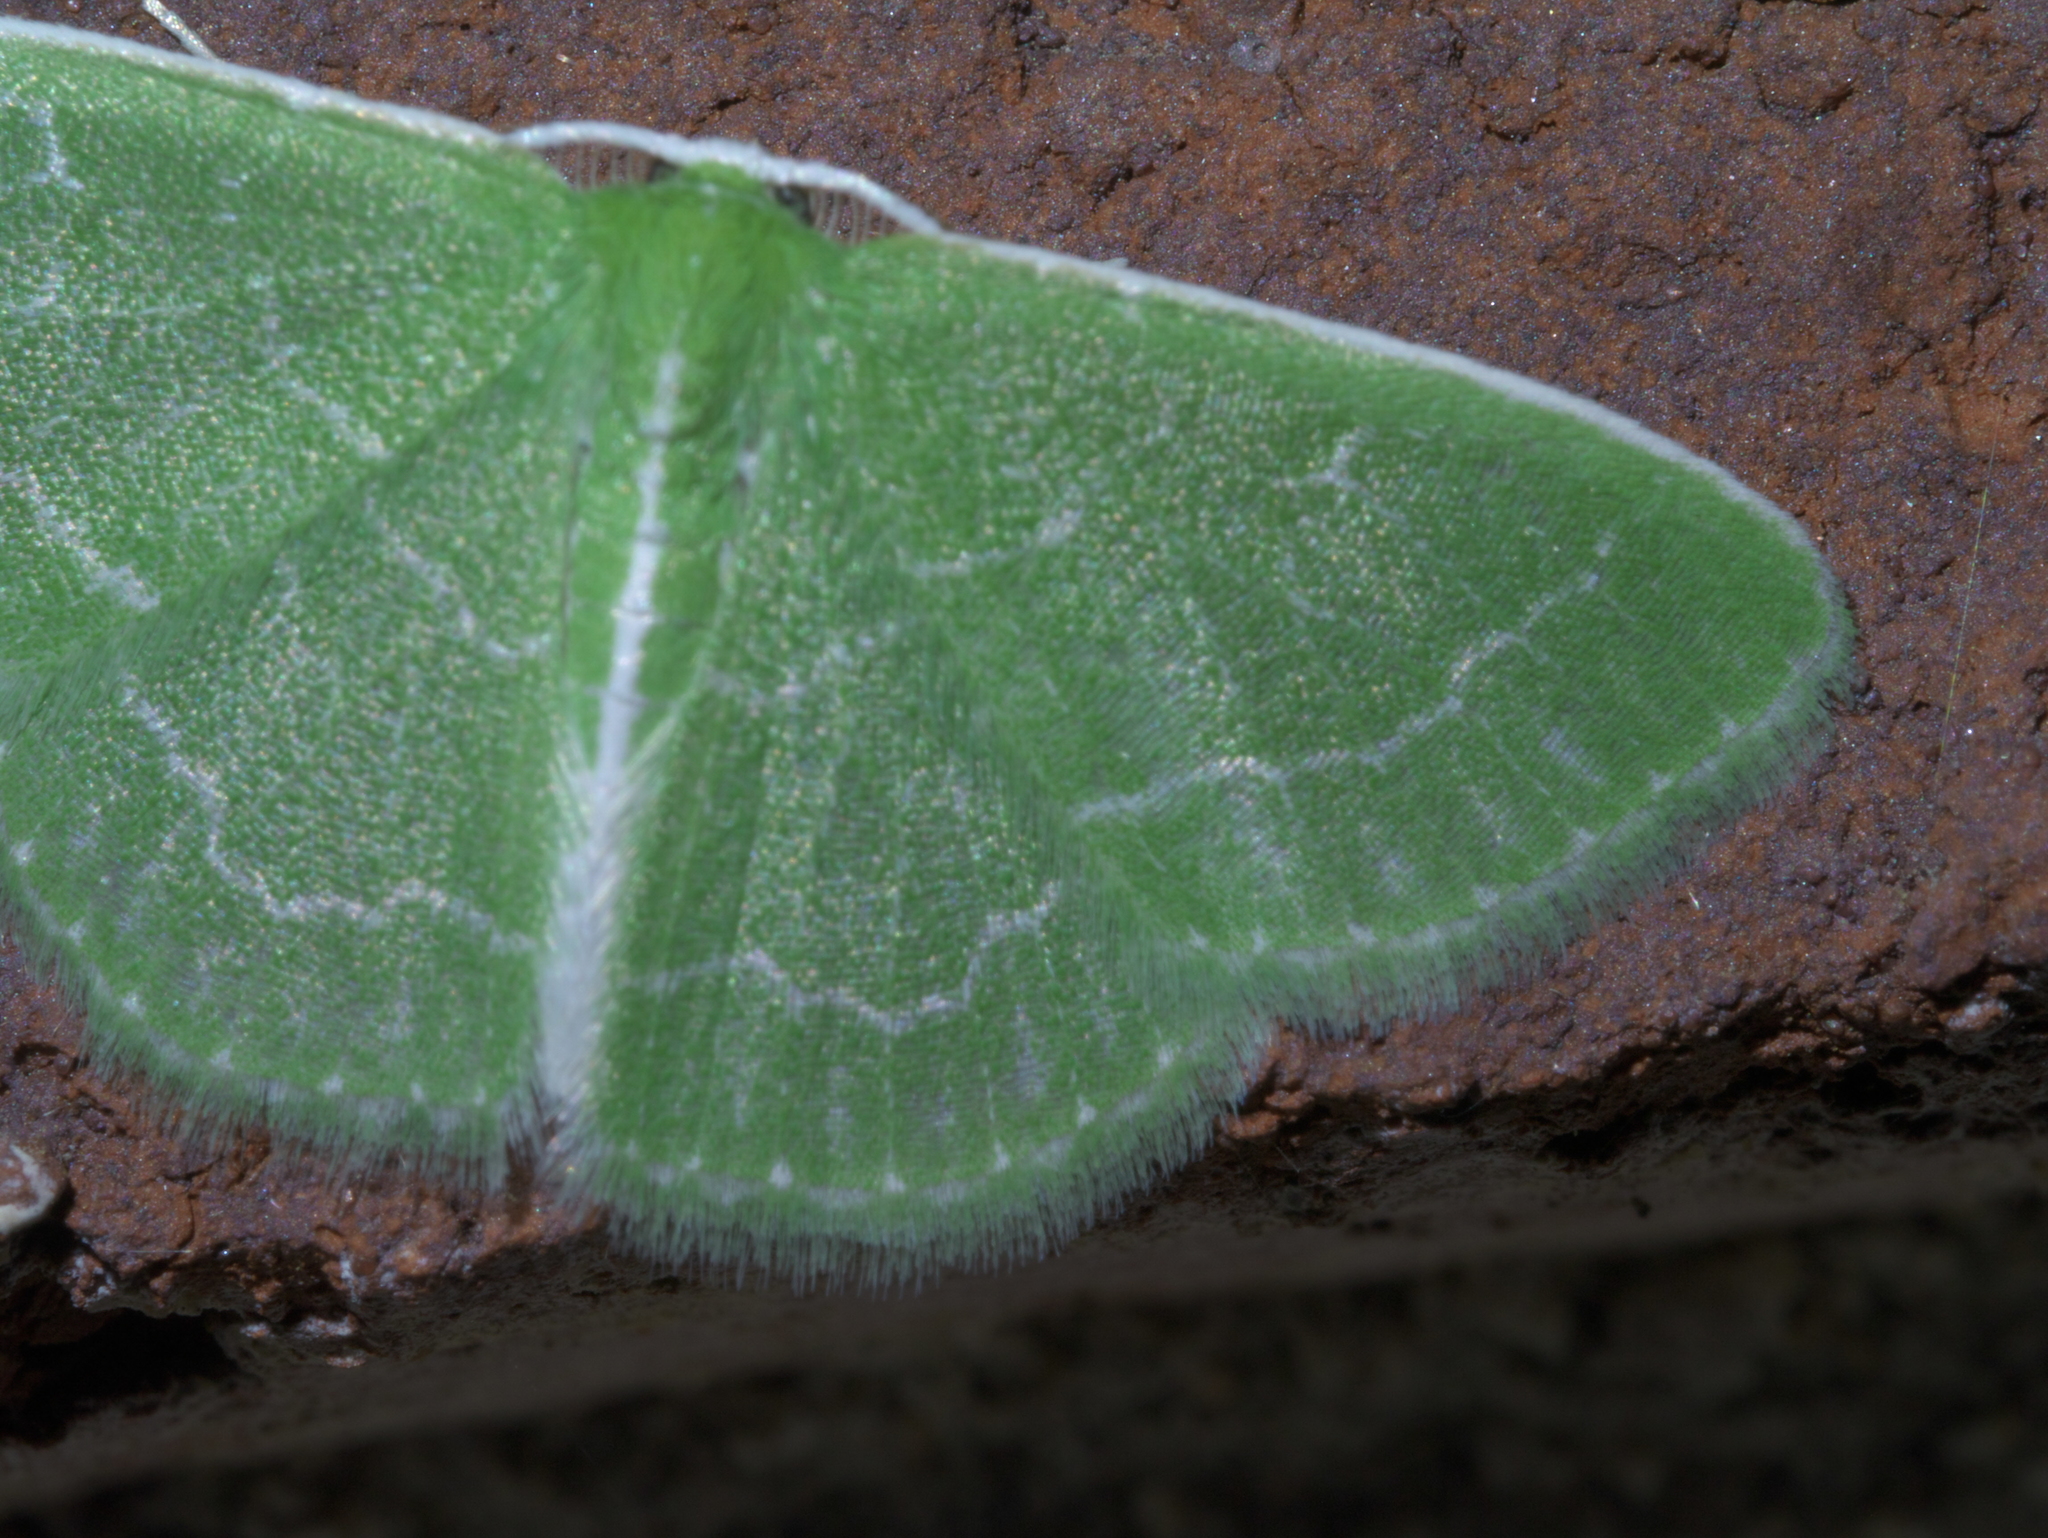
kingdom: Animalia
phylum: Arthropoda
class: Insecta
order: Lepidoptera
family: Geometridae
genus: Synchlora
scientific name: Synchlora aerata
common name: Wavy-lined emerald
